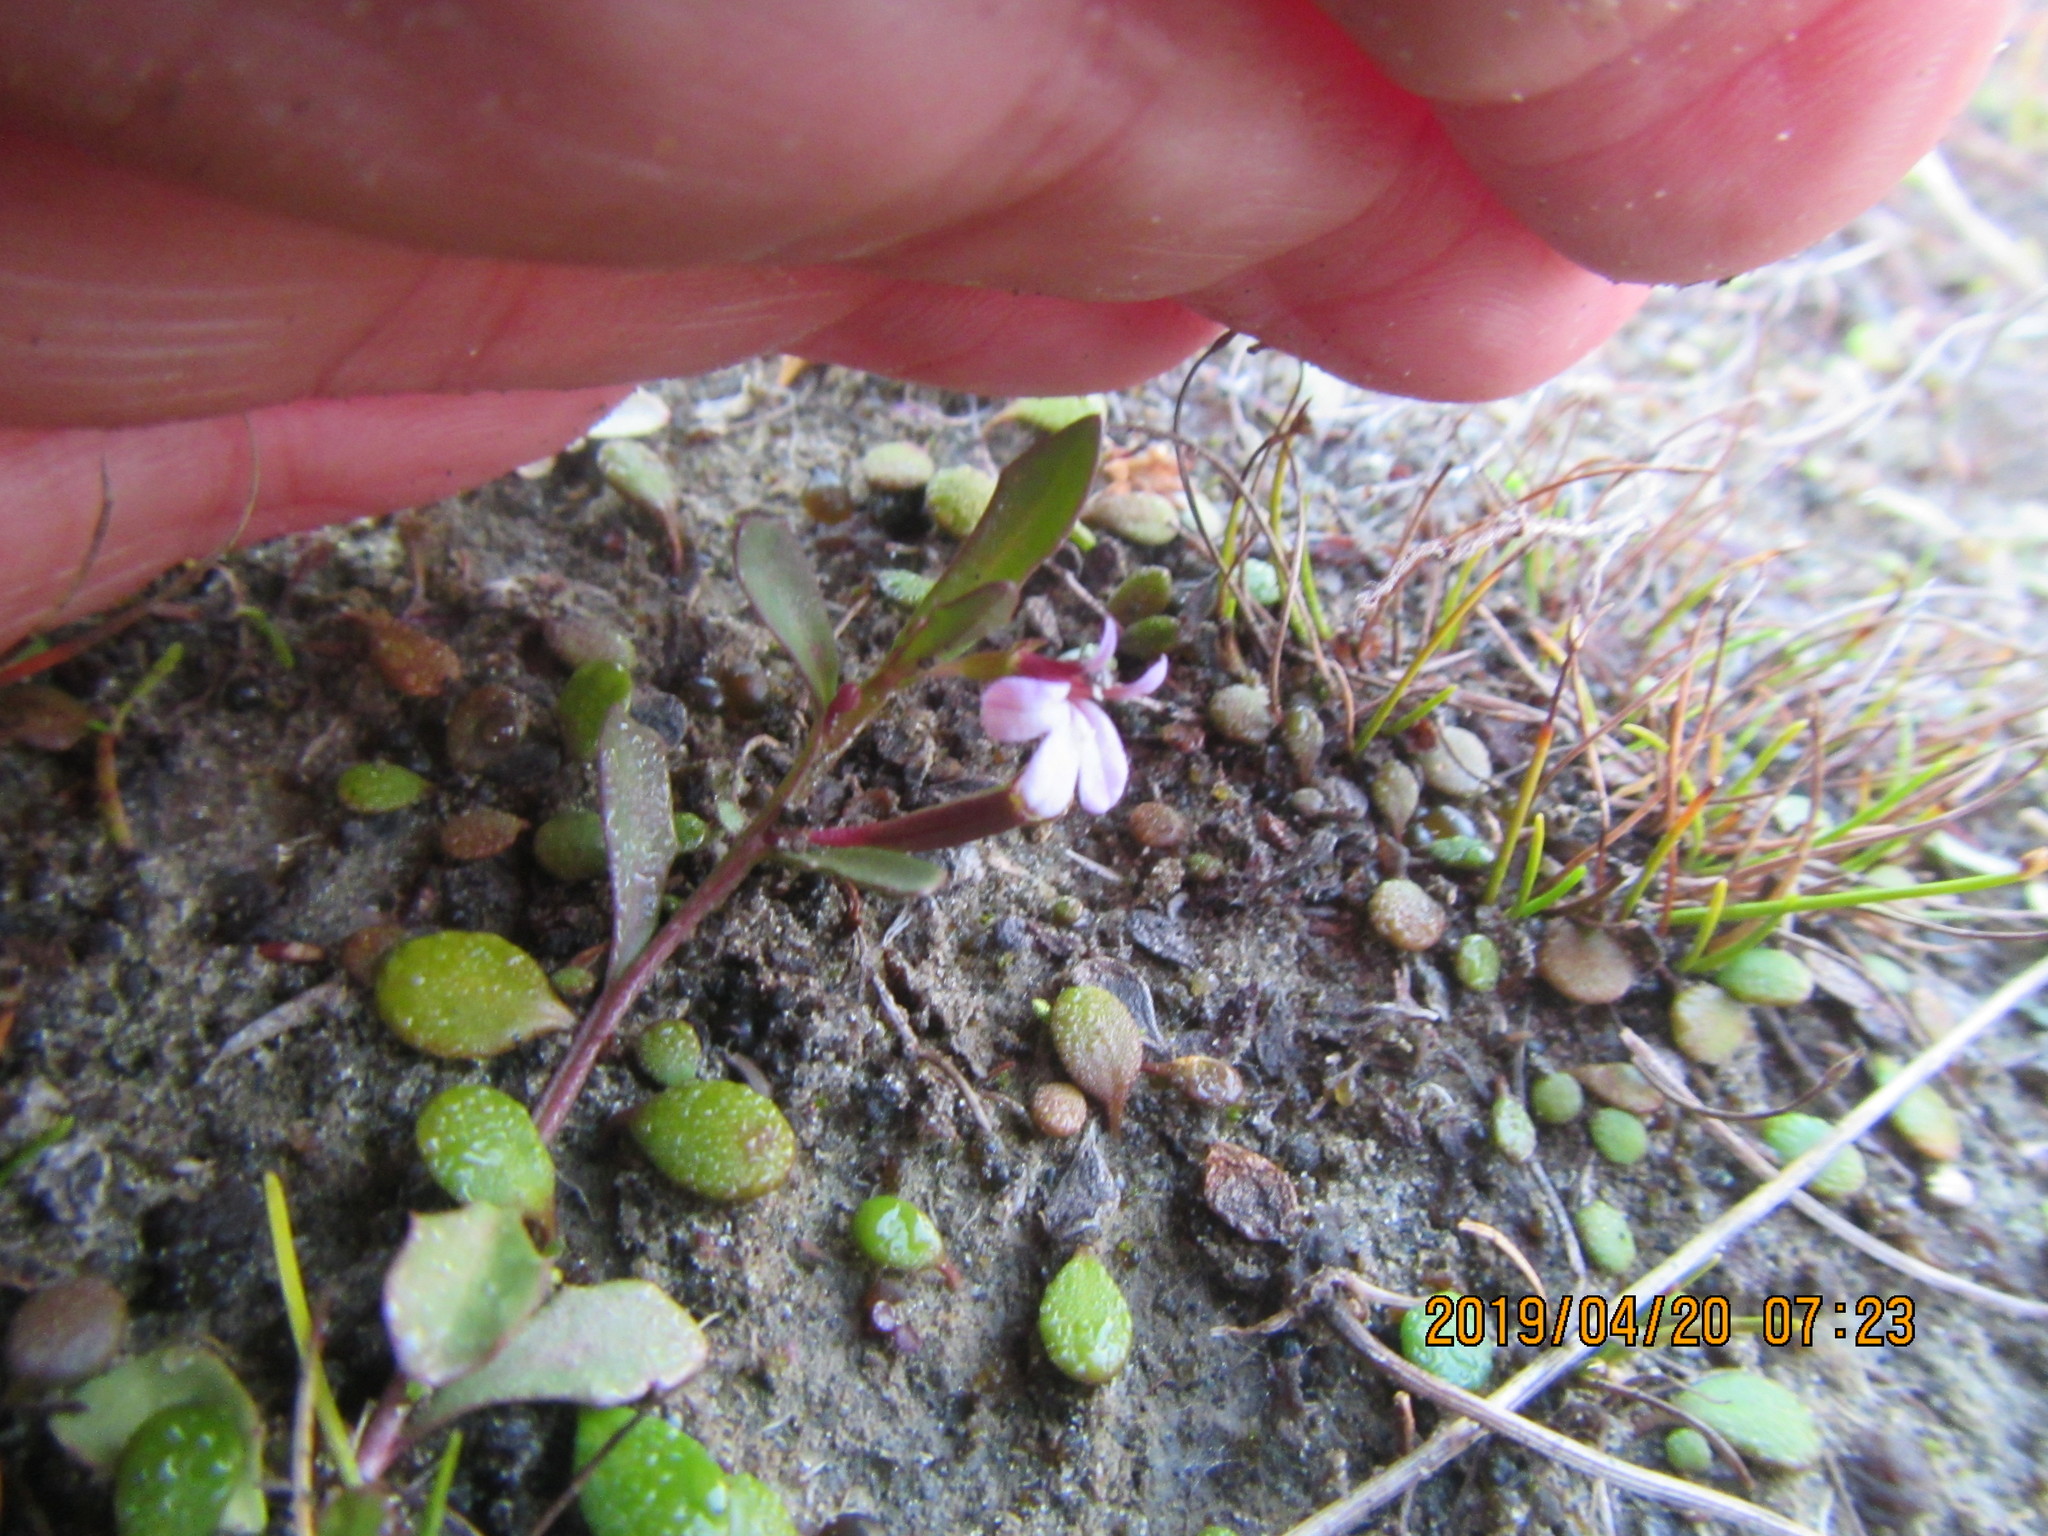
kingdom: Plantae
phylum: Tracheophyta
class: Magnoliopsida
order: Asterales
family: Campanulaceae
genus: Lobelia
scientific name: Lobelia anceps
